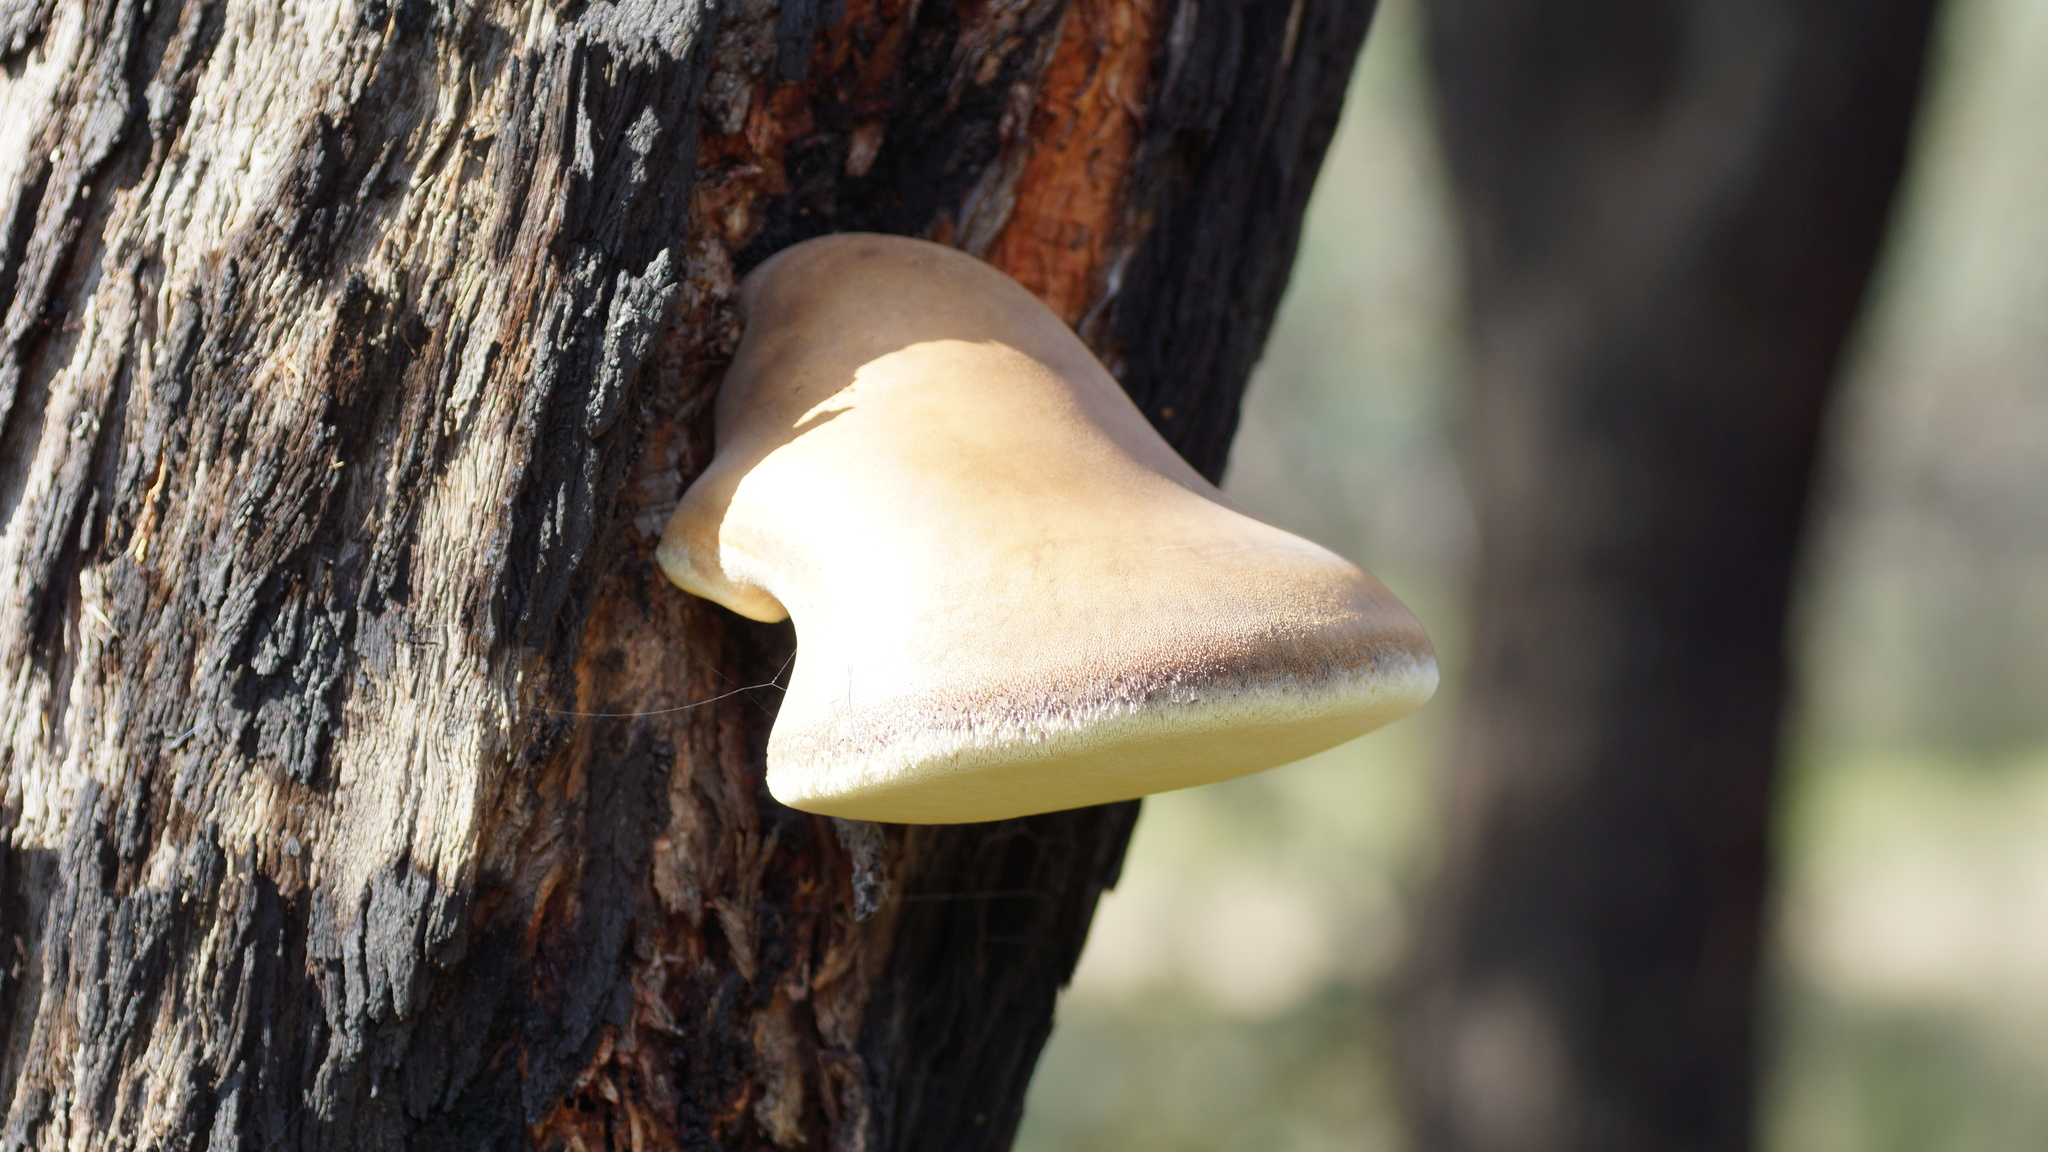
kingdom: Fungi
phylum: Basidiomycota
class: Agaricomycetes
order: Polyporales
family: Laetiporaceae
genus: Laetiporus
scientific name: Laetiporus portentosus
